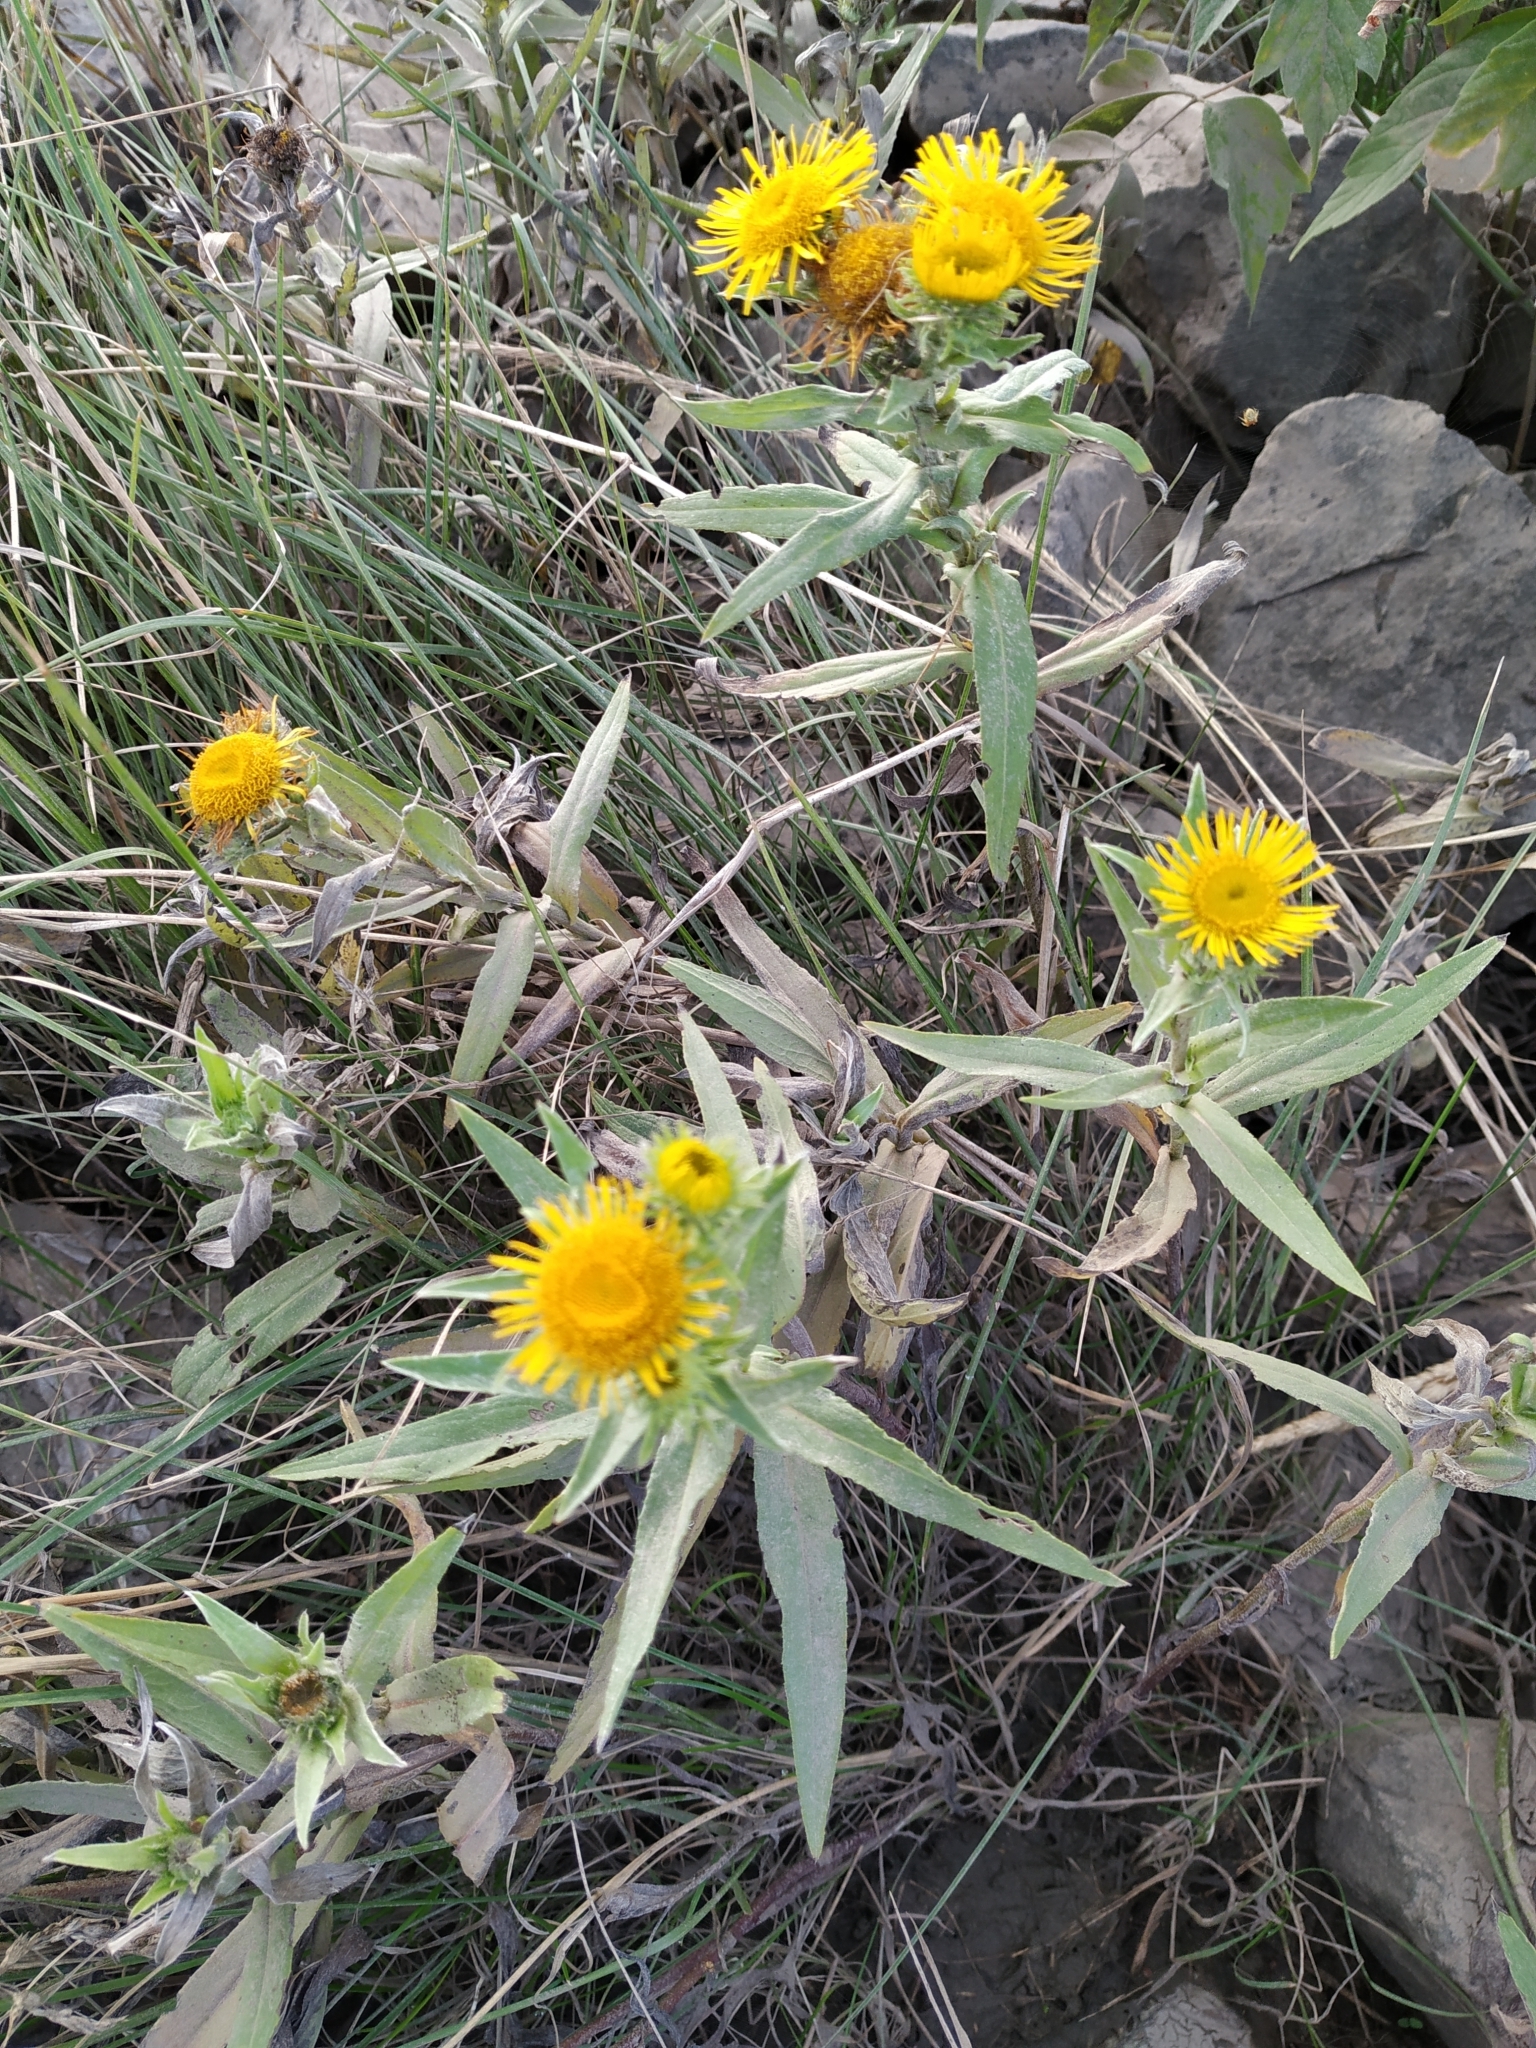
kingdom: Plantae
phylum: Tracheophyta
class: Magnoliopsida
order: Asterales
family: Asteraceae
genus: Pentanema
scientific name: Pentanema britannicum
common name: British elecampane
